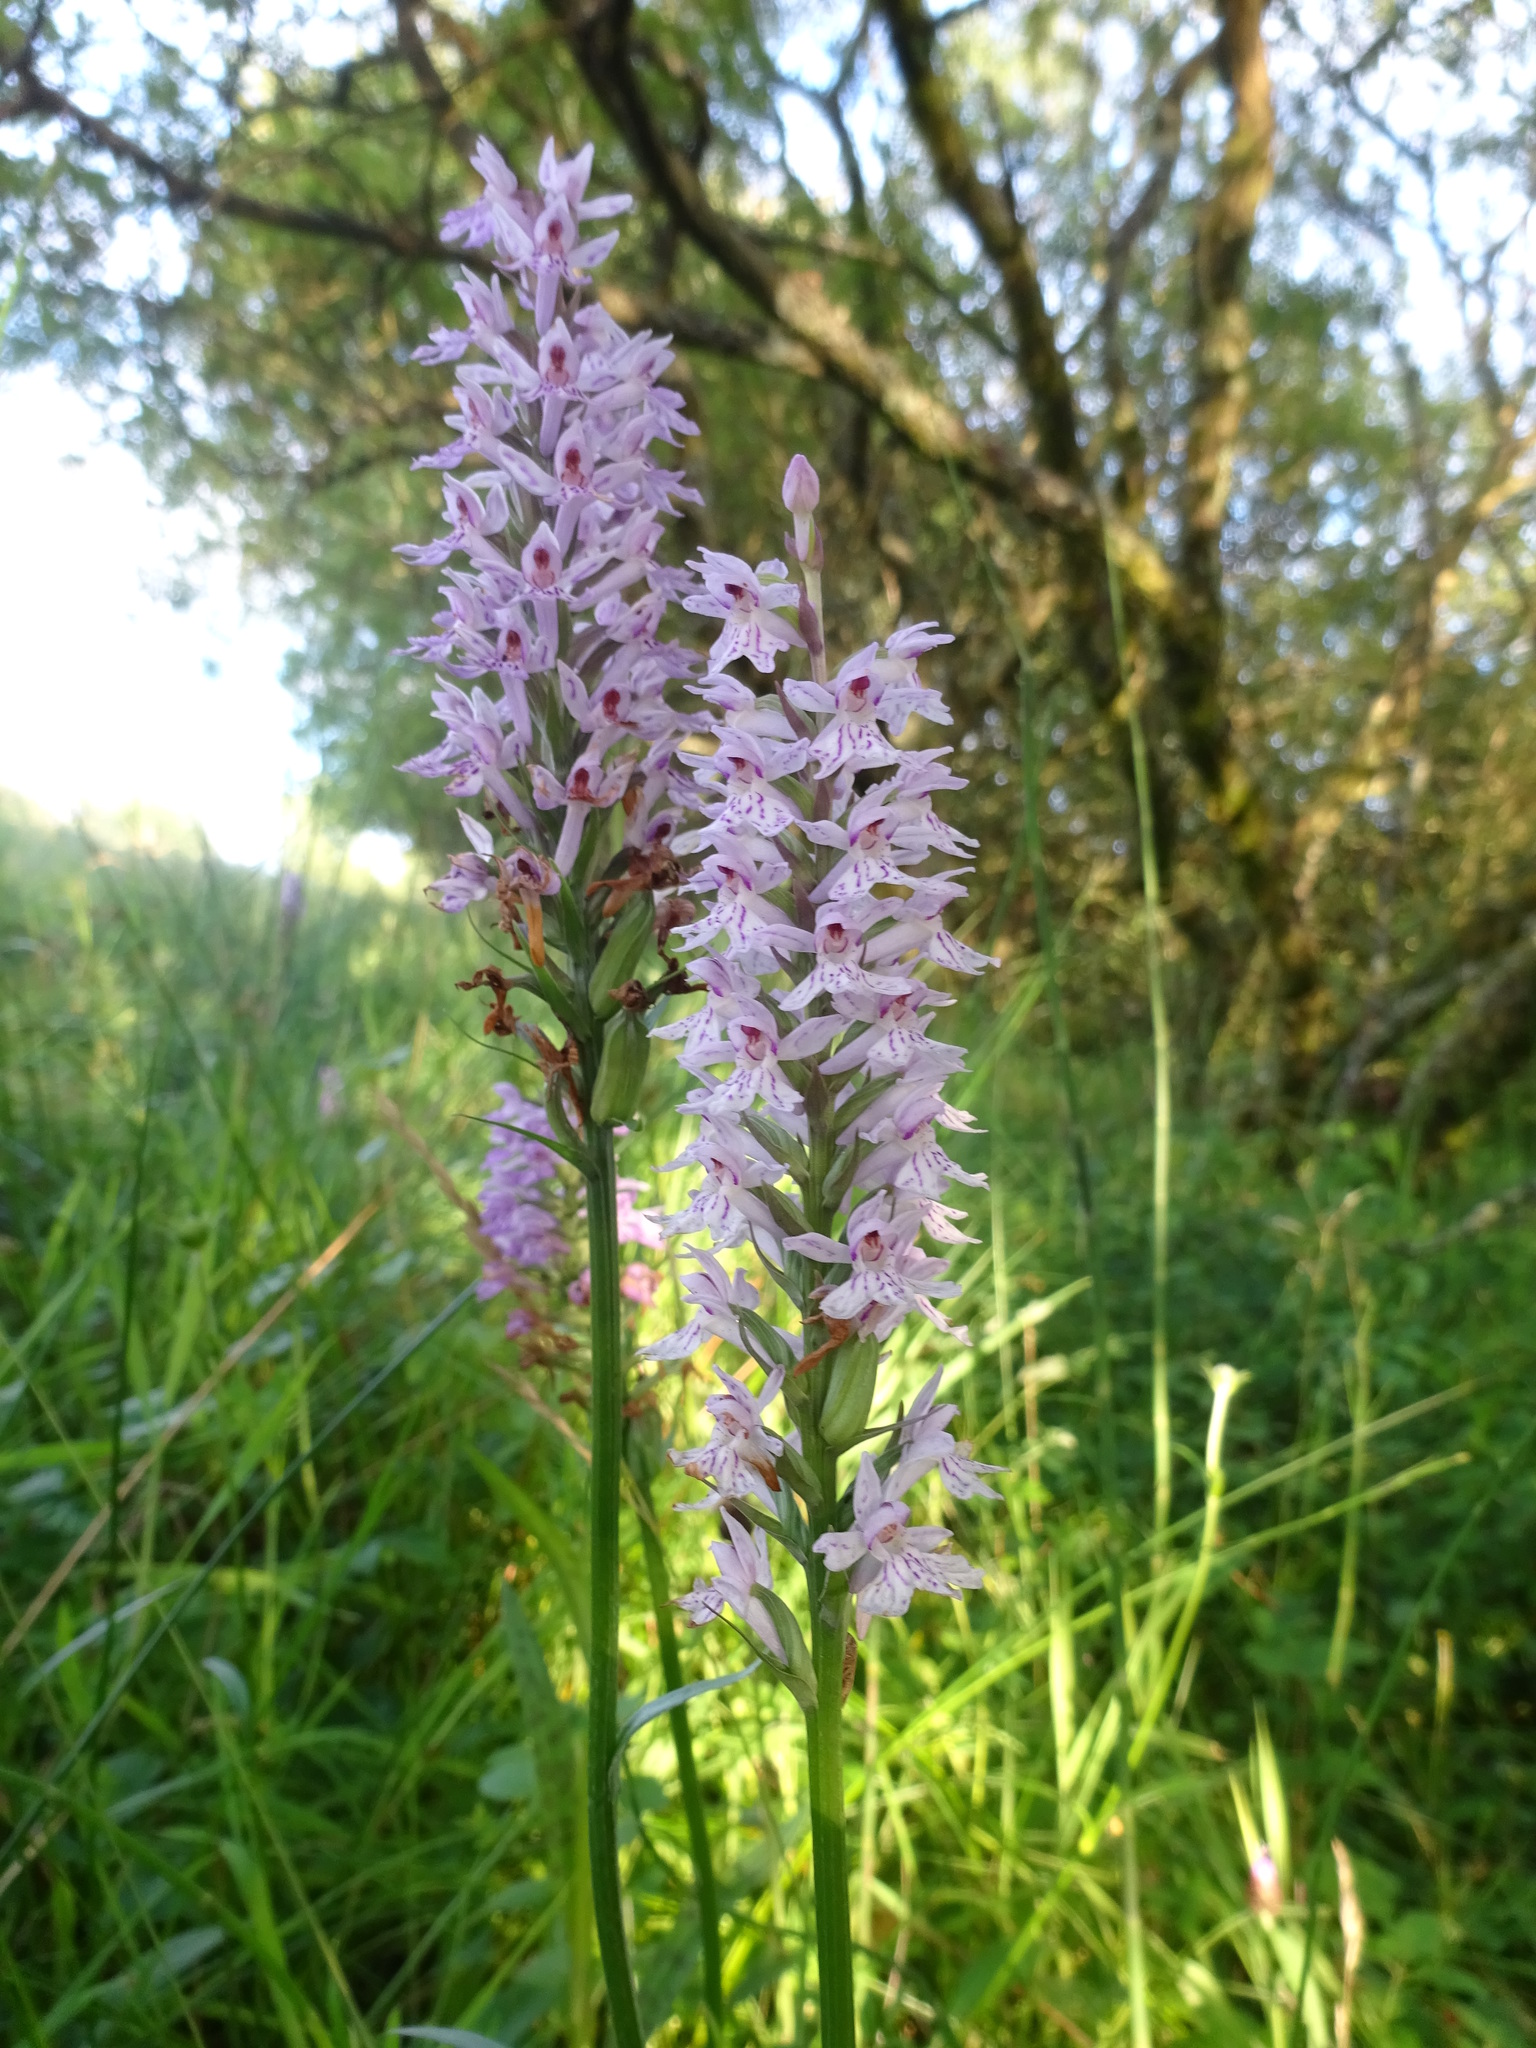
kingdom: Plantae
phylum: Tracheophyta
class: Liliopsida
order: Asparagales
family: Orchidaceae
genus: Dactylorhiza
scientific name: Dactylorhiza maculata
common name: Heath spotted-orchid
